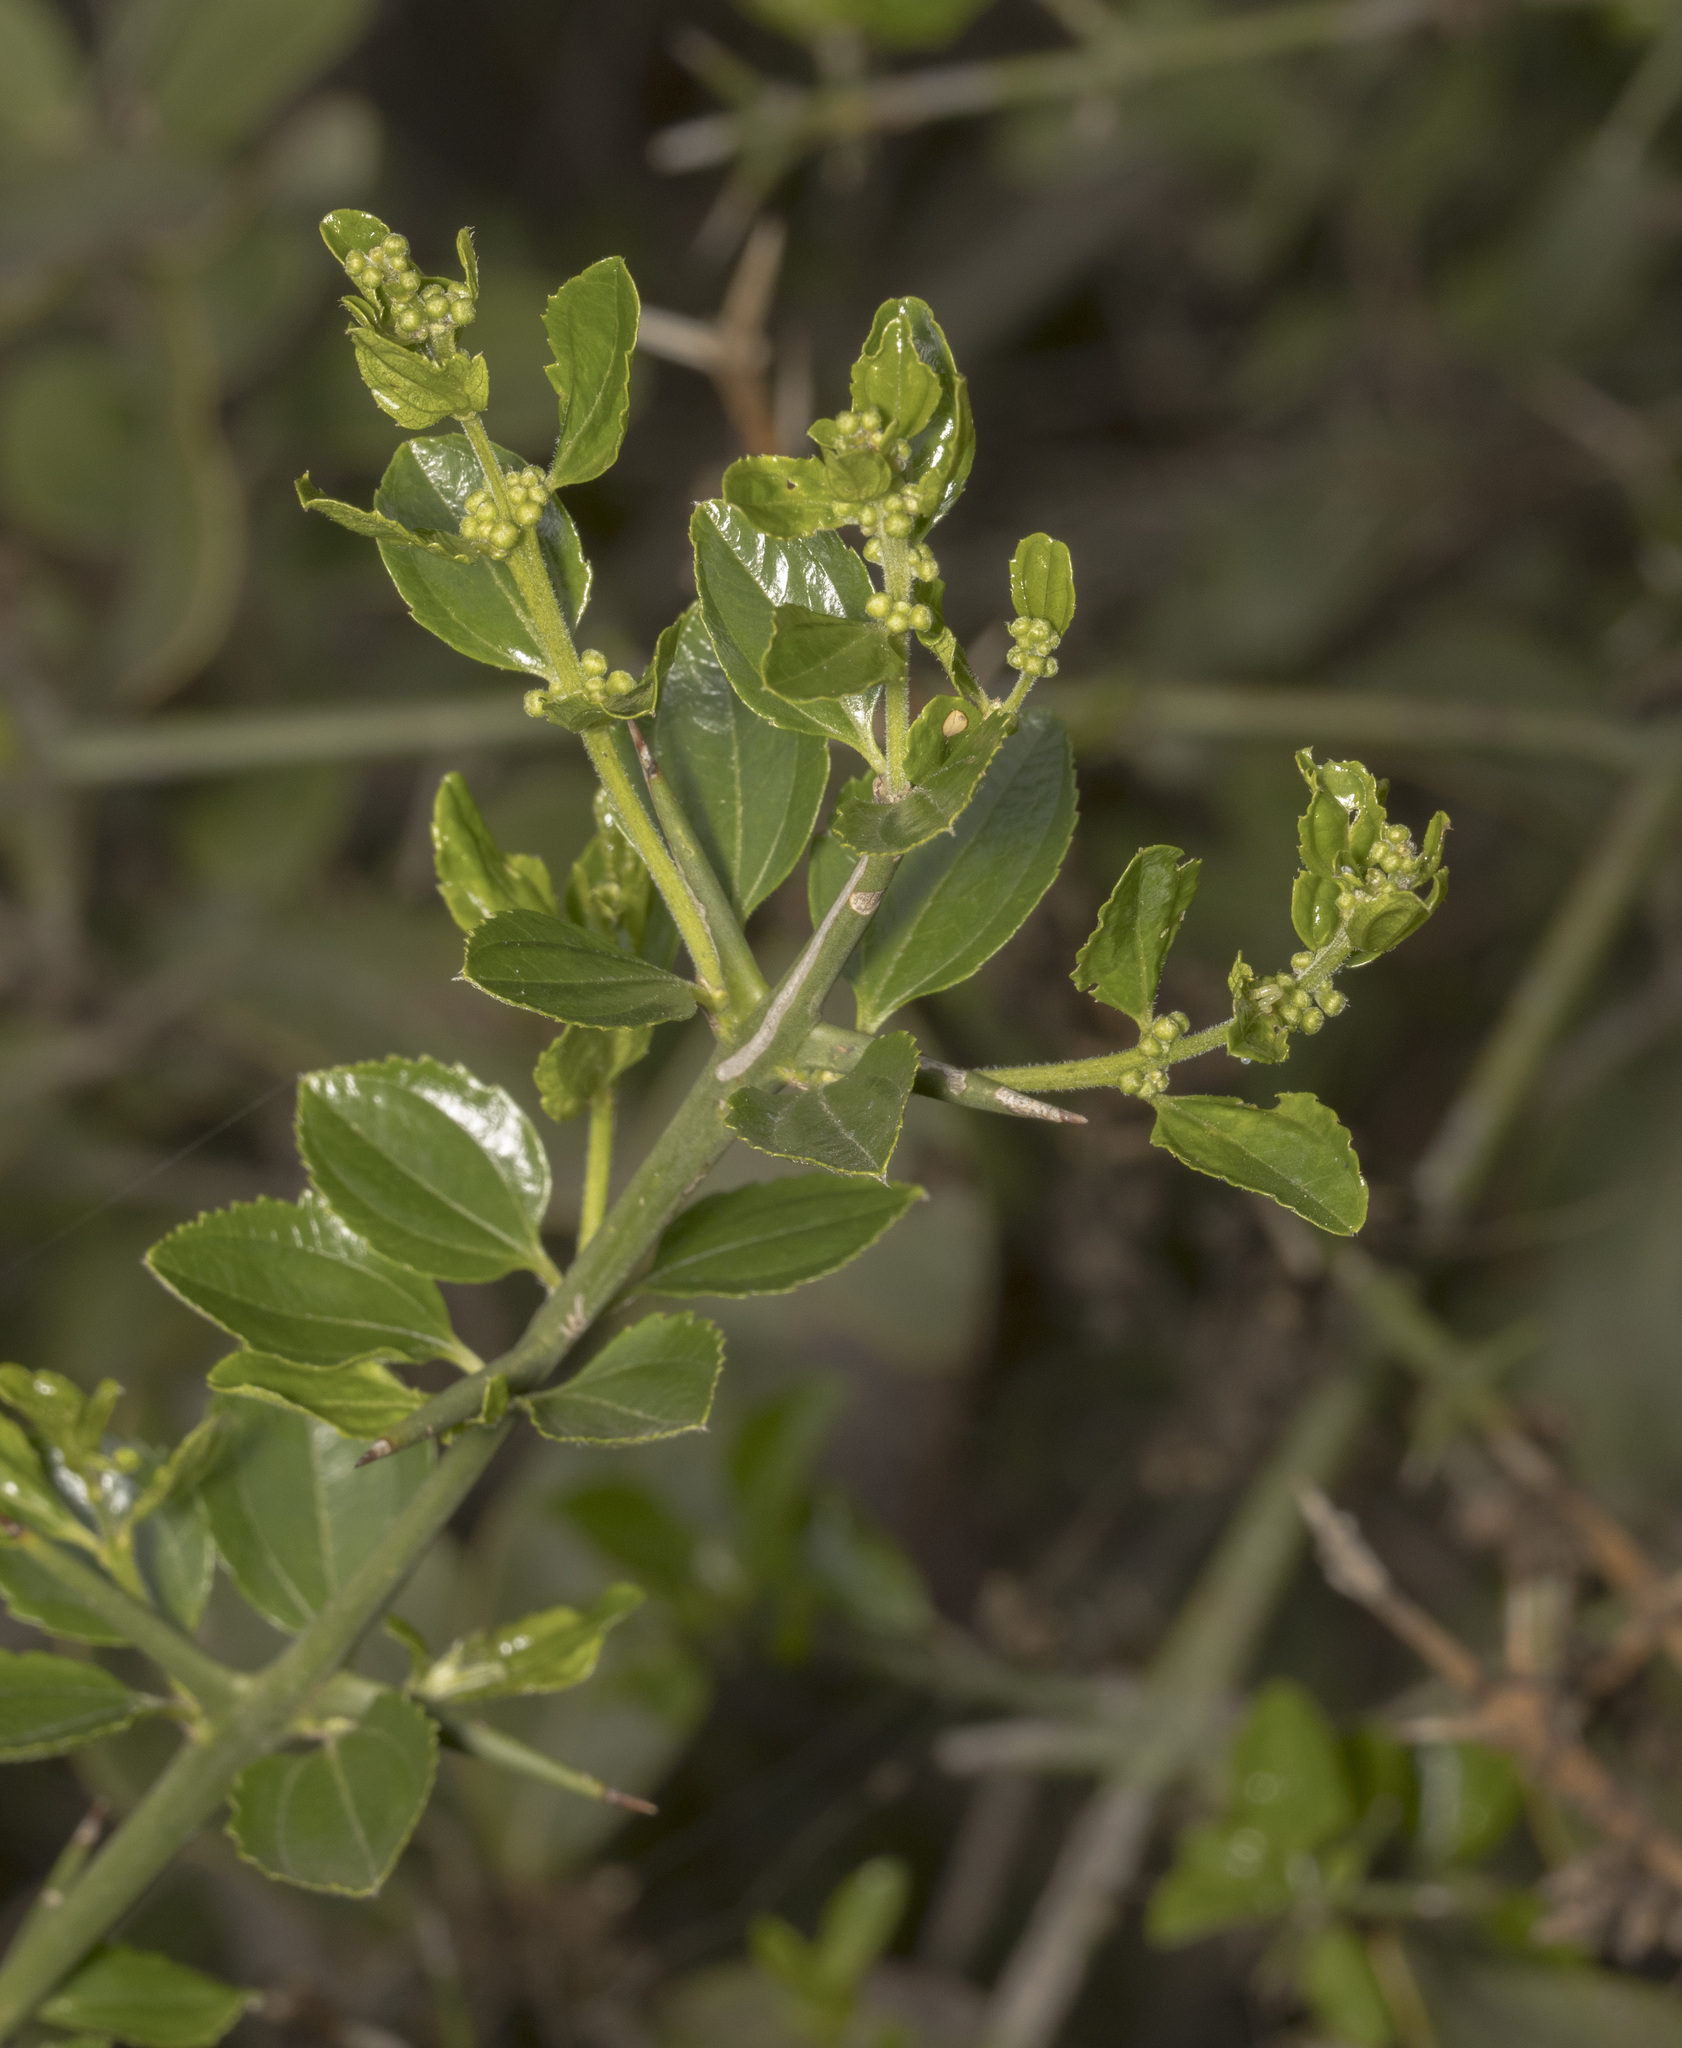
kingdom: Plantae
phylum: Tracheophyta
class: Magnoliopsida
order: Rosales
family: Rhamnaceae
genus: Retanilla
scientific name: Retanilla trinervia
